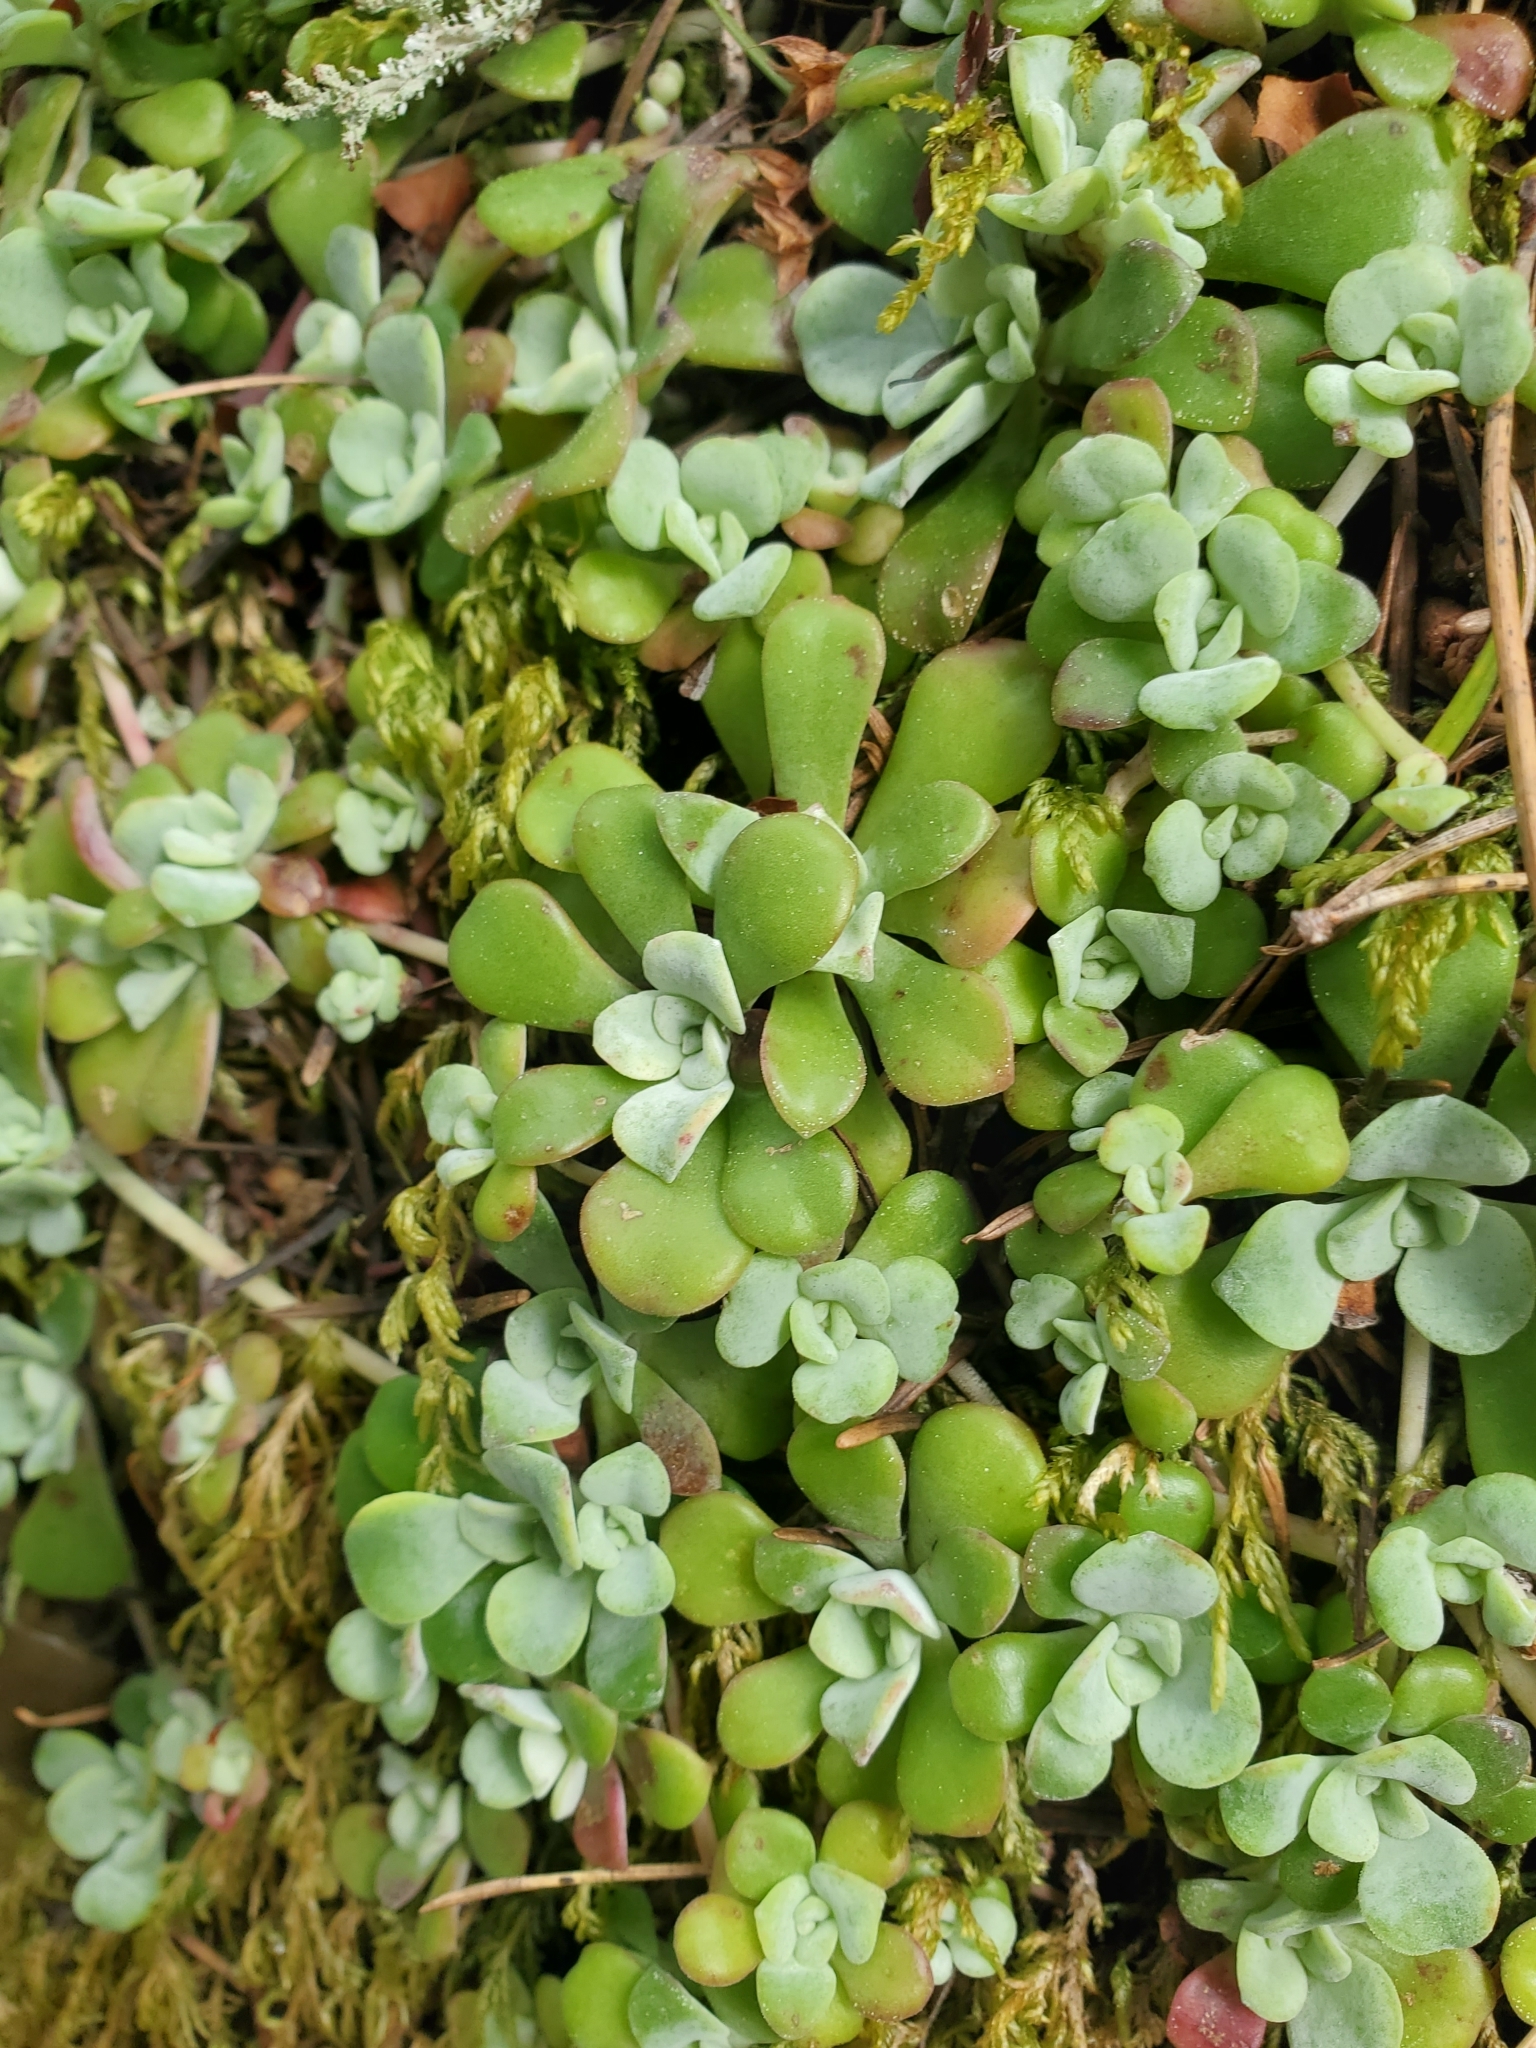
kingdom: Plantae
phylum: Tracheophyta
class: Magnoliopsida
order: Saxifragales
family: Crassulaceae
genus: Sedum
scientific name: Sedum spathulifolium
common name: Colorado stonecrop
